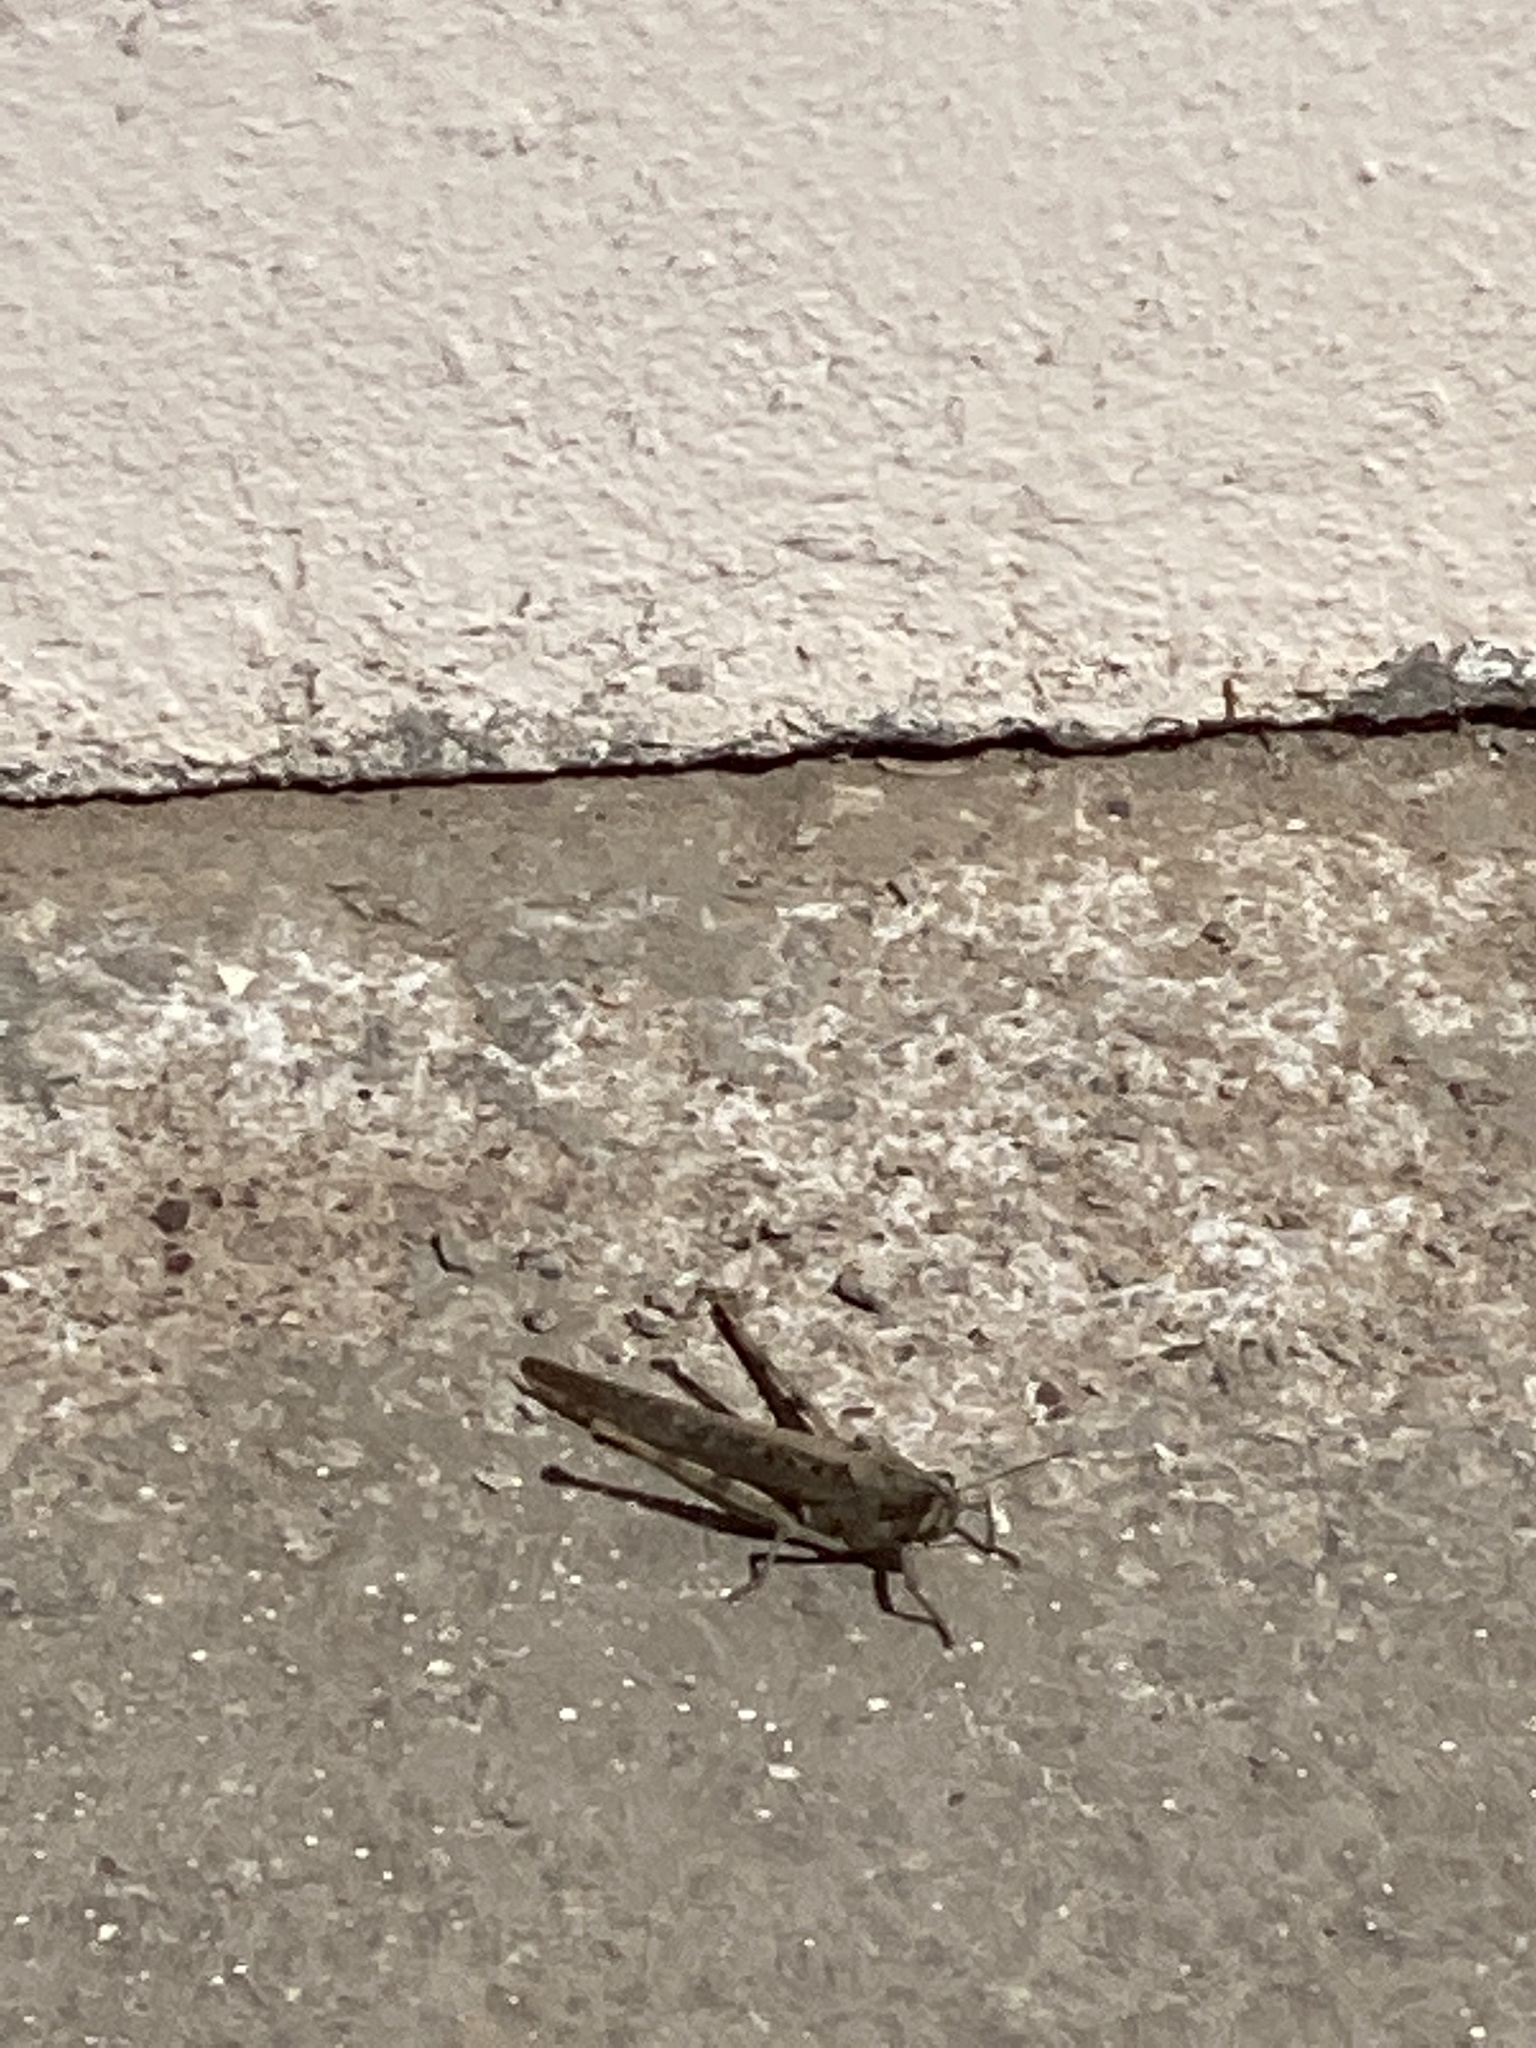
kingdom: Animalia
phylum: Arthropoda
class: Insecta
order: Orthoptera
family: Acrididae
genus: Schistocerca
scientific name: Schistocerca nitens
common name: Vagrant grasshopper
